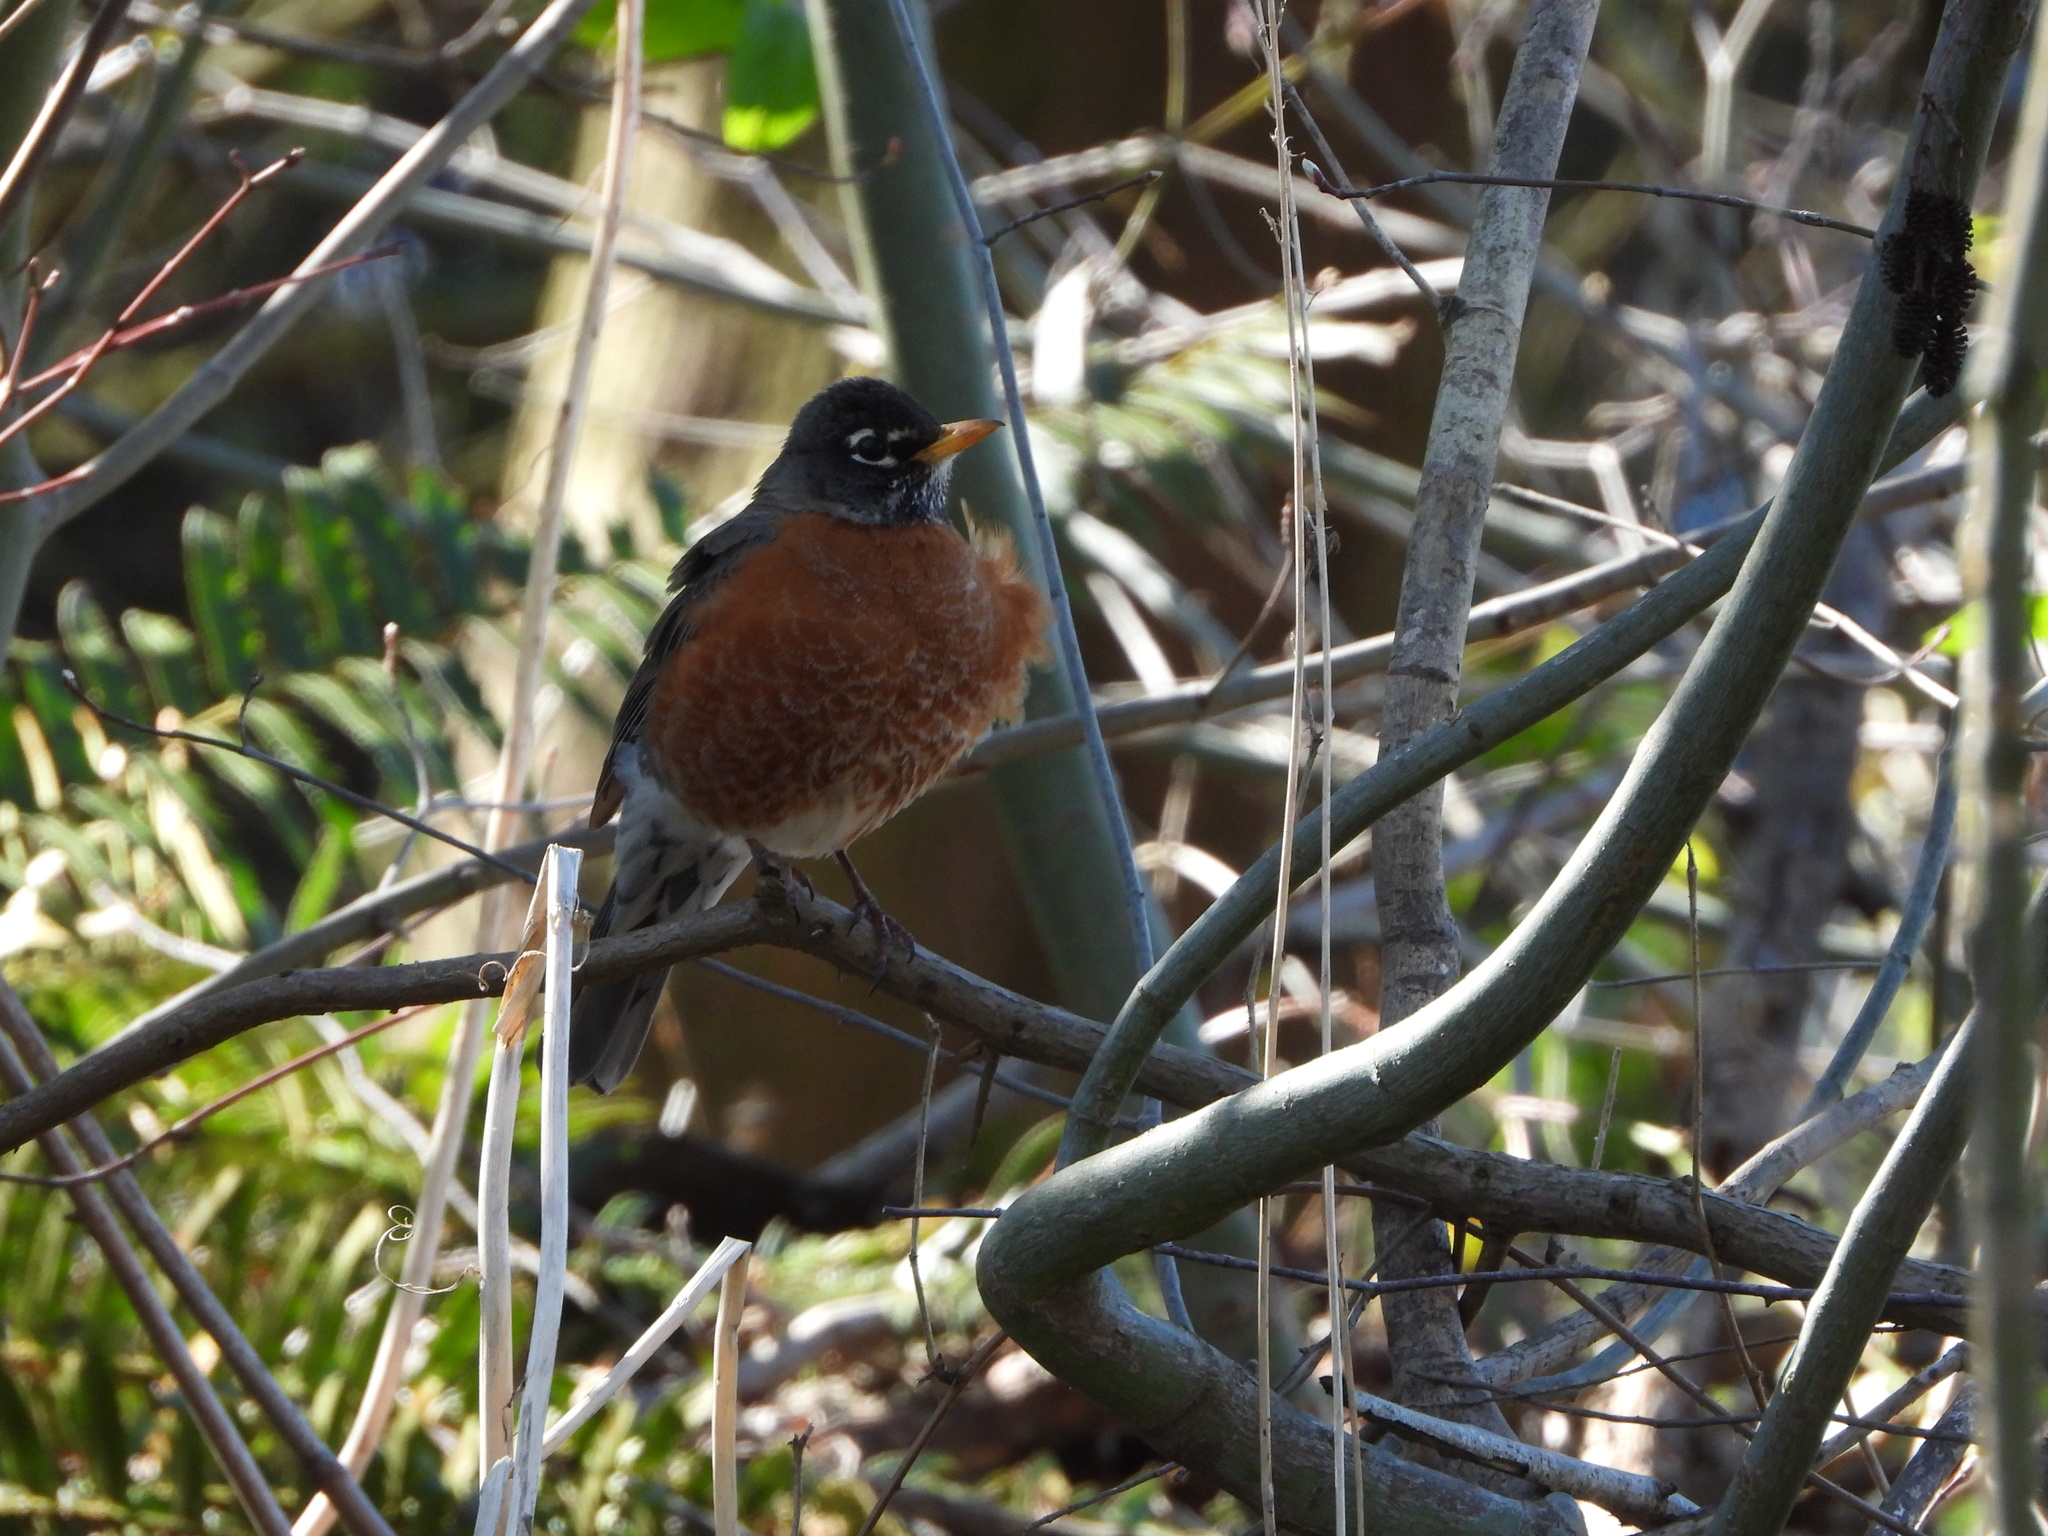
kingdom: Animalia
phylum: Chordata
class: Aves
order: Passeriformes
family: Turdidae
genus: Turdus
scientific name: Turdus migratorius
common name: American robin
